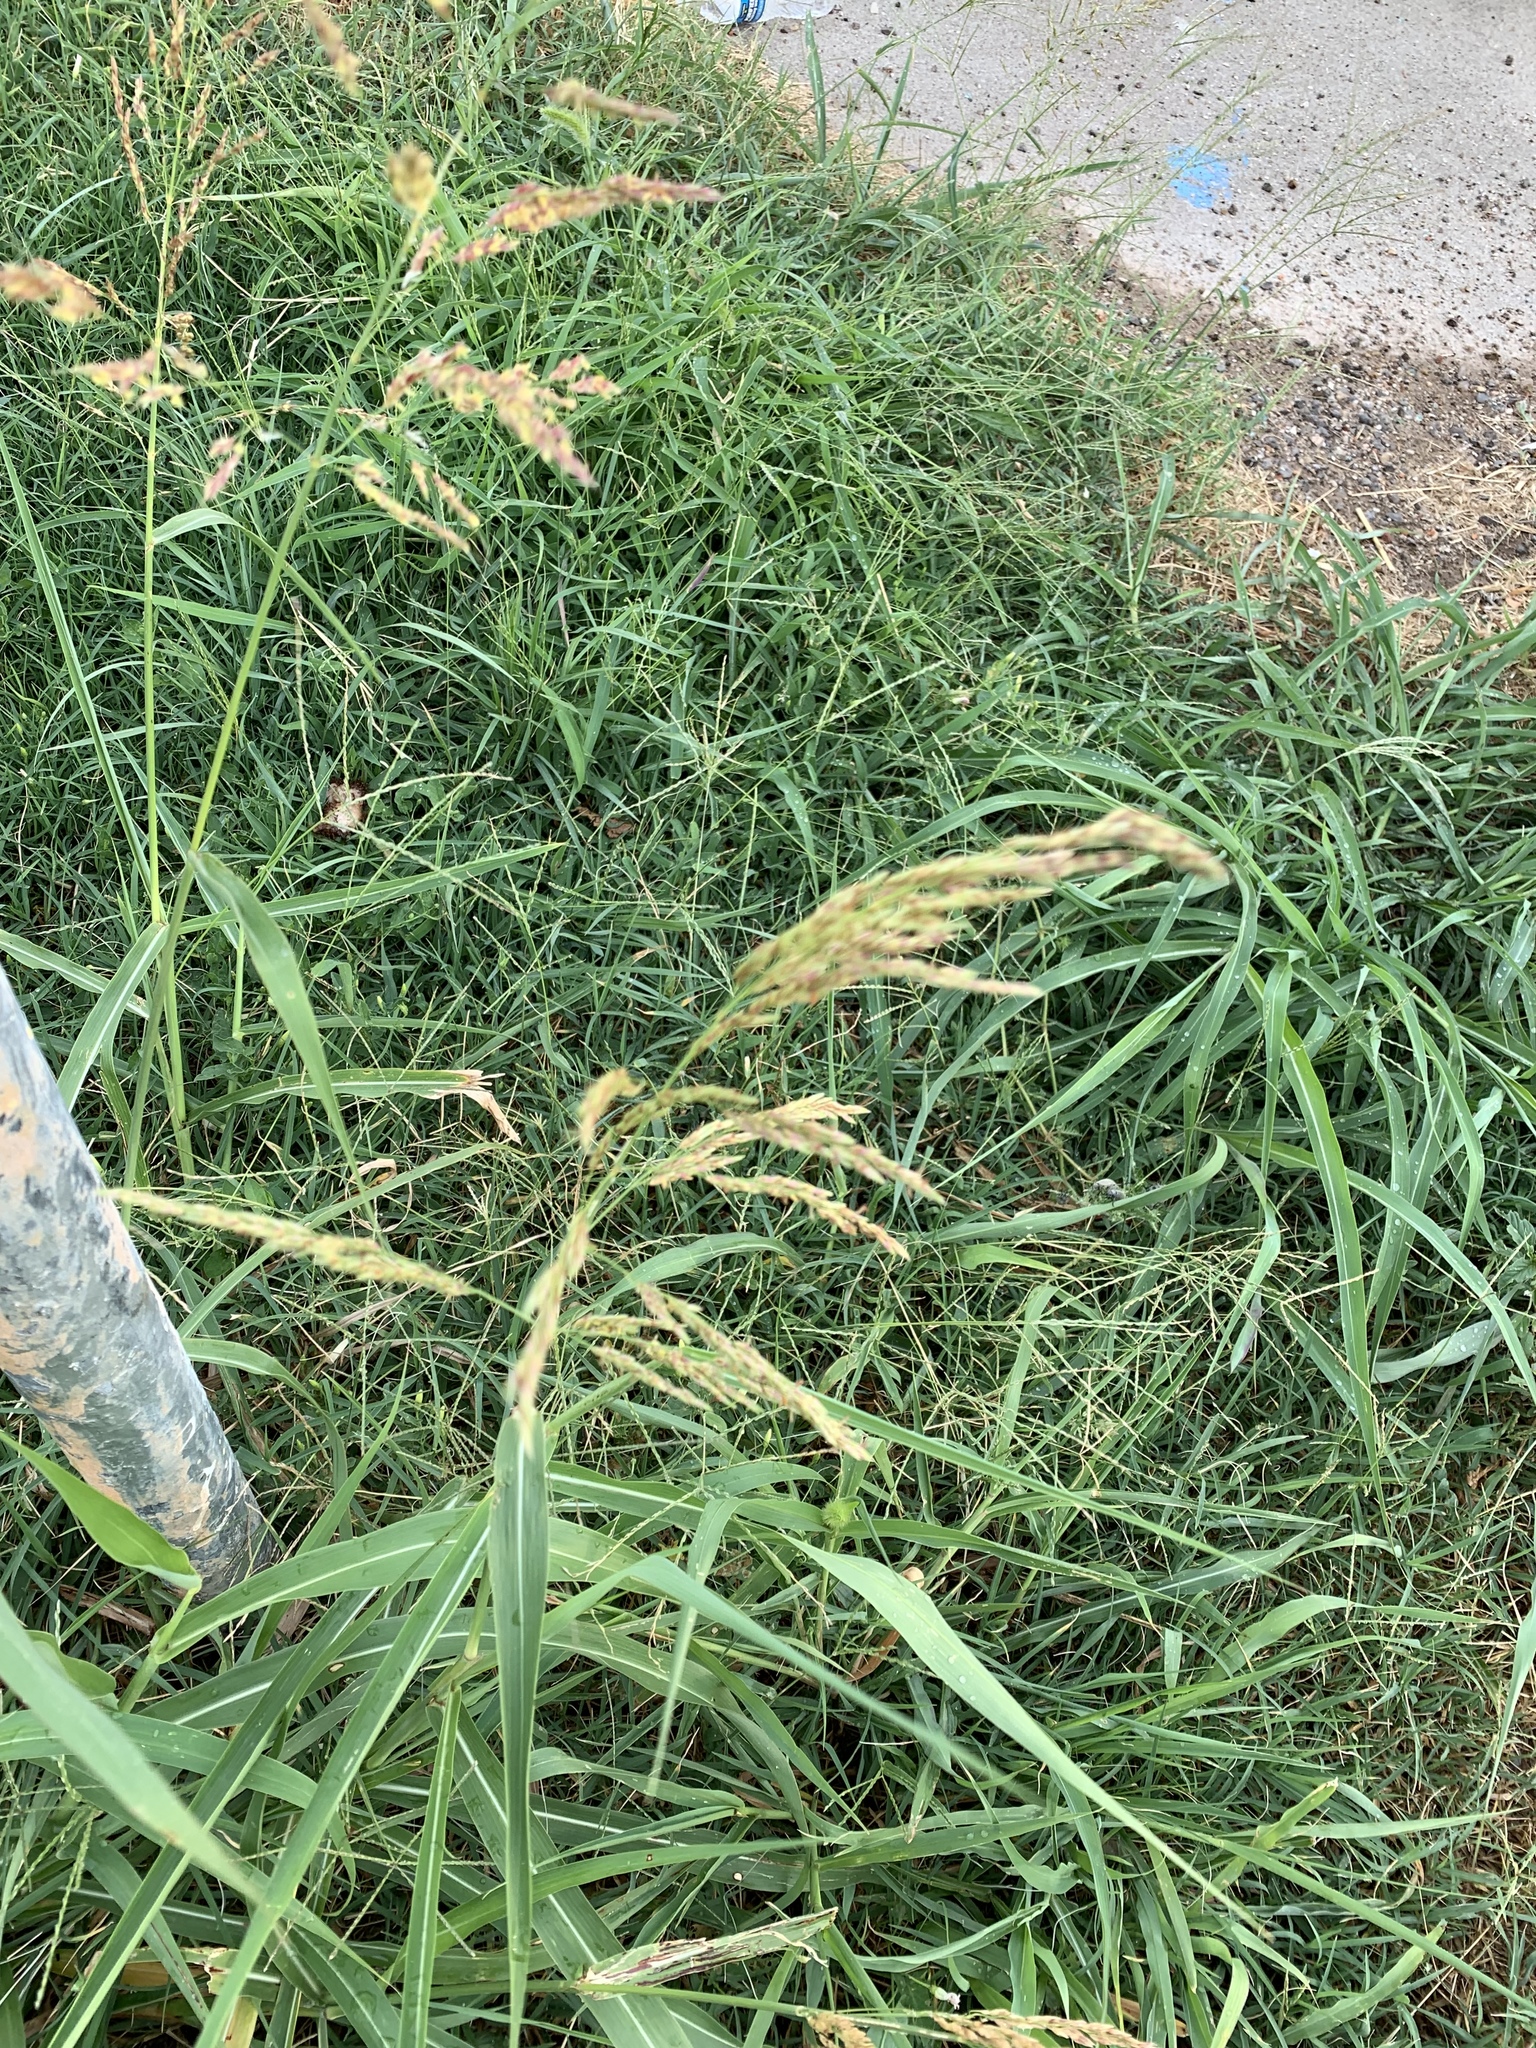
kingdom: Plantae
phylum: Tracheophyta
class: Liliopsida
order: Poales
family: Poaceae
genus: Sorghum
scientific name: Sorghum halepense
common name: Johnson-grass
